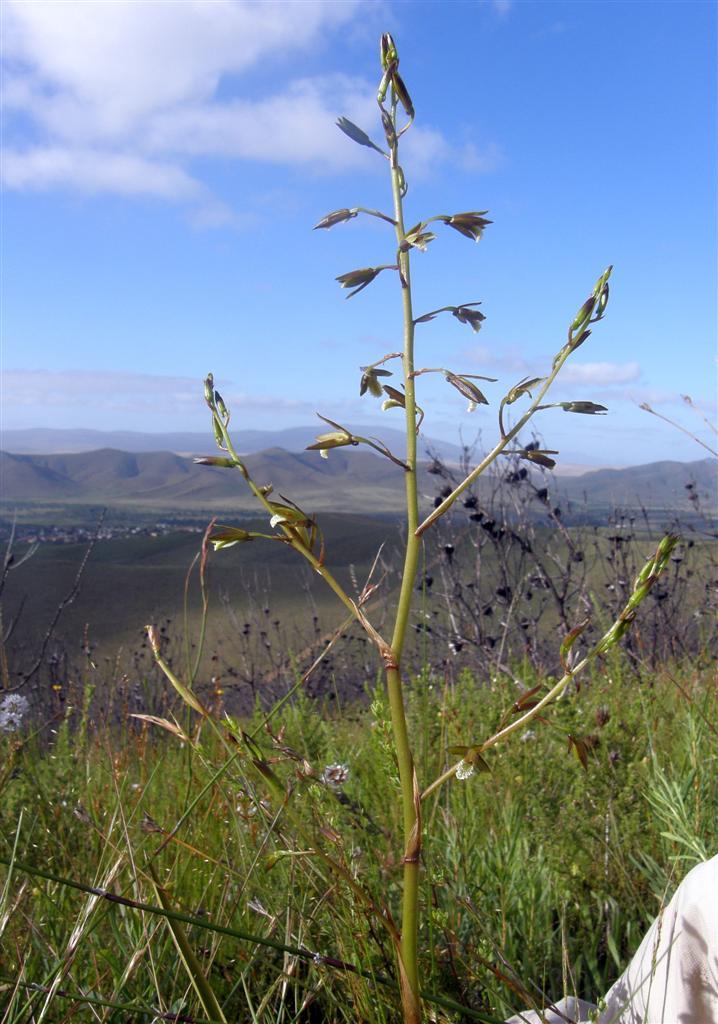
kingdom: Plantae
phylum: Tracheophyta
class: Liliopsida
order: Asparagales
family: Orchidaceae
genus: Eulophia
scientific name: Eulophia tristis
